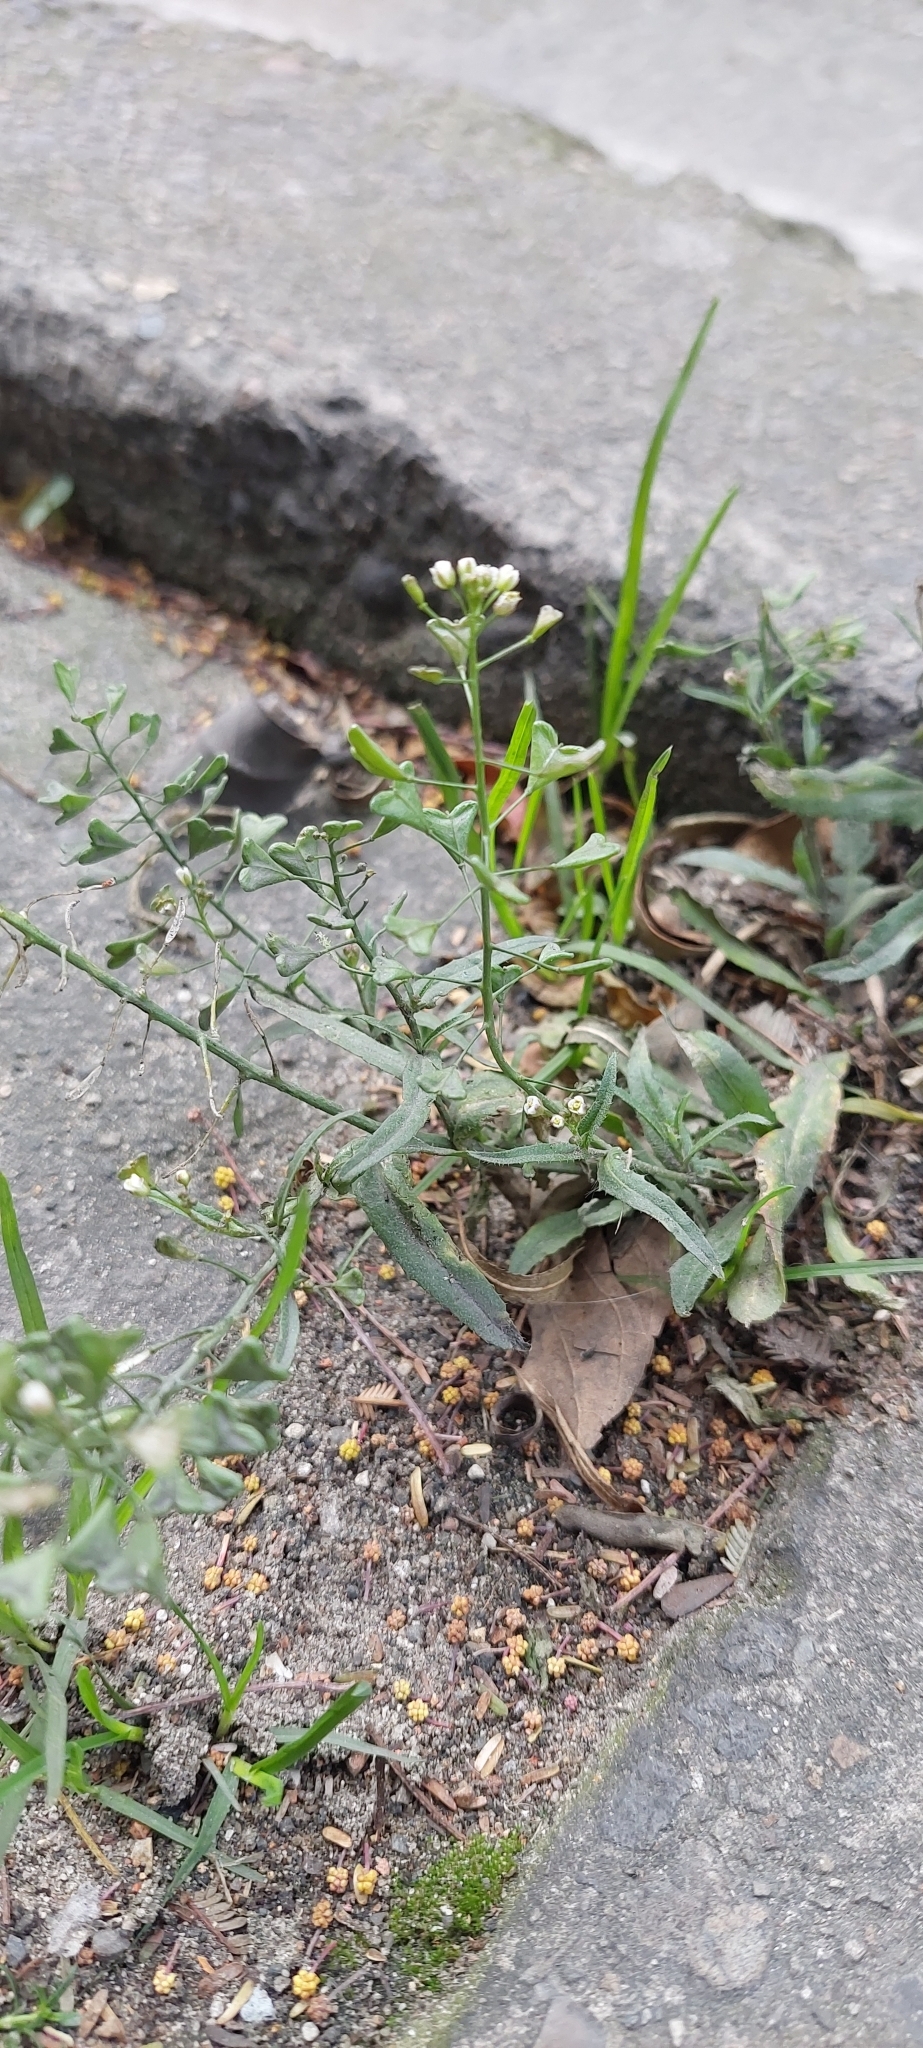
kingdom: Plantae
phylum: Tracheophyta
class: Magnoliopsida
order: Brassicales
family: Brassicaceae
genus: Capsella
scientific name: Capsella bursa-pastoris
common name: Shepherd's purse
